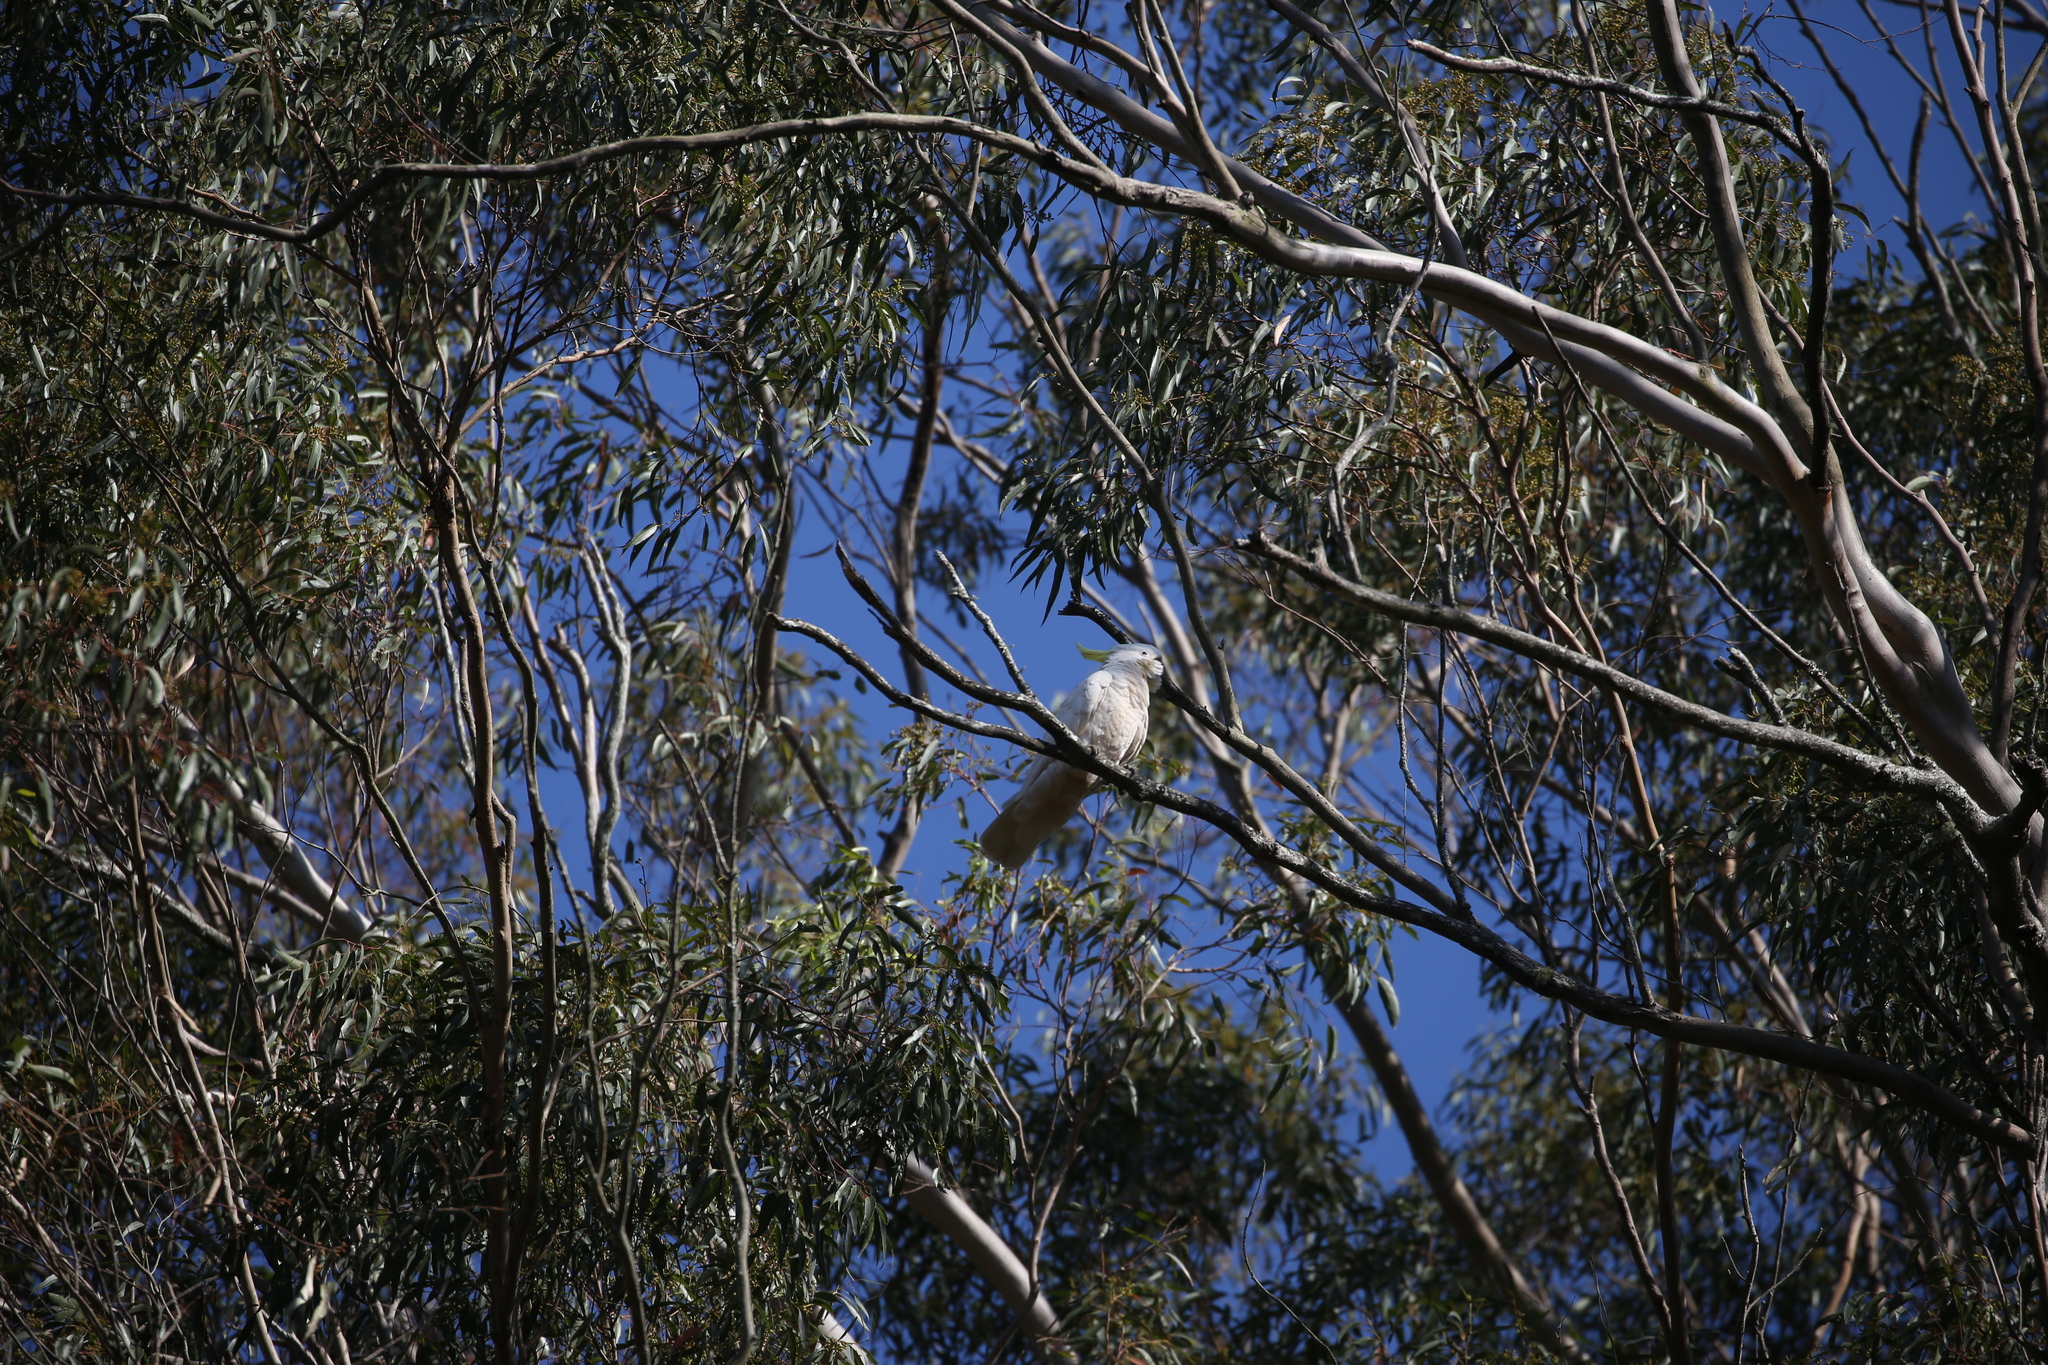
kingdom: Animalia
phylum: Chordata
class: Aves
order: Psittaciformes
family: Psittacidae
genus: Cacatua
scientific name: Cacatua galerita
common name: Sulphur-crested cockatoo
